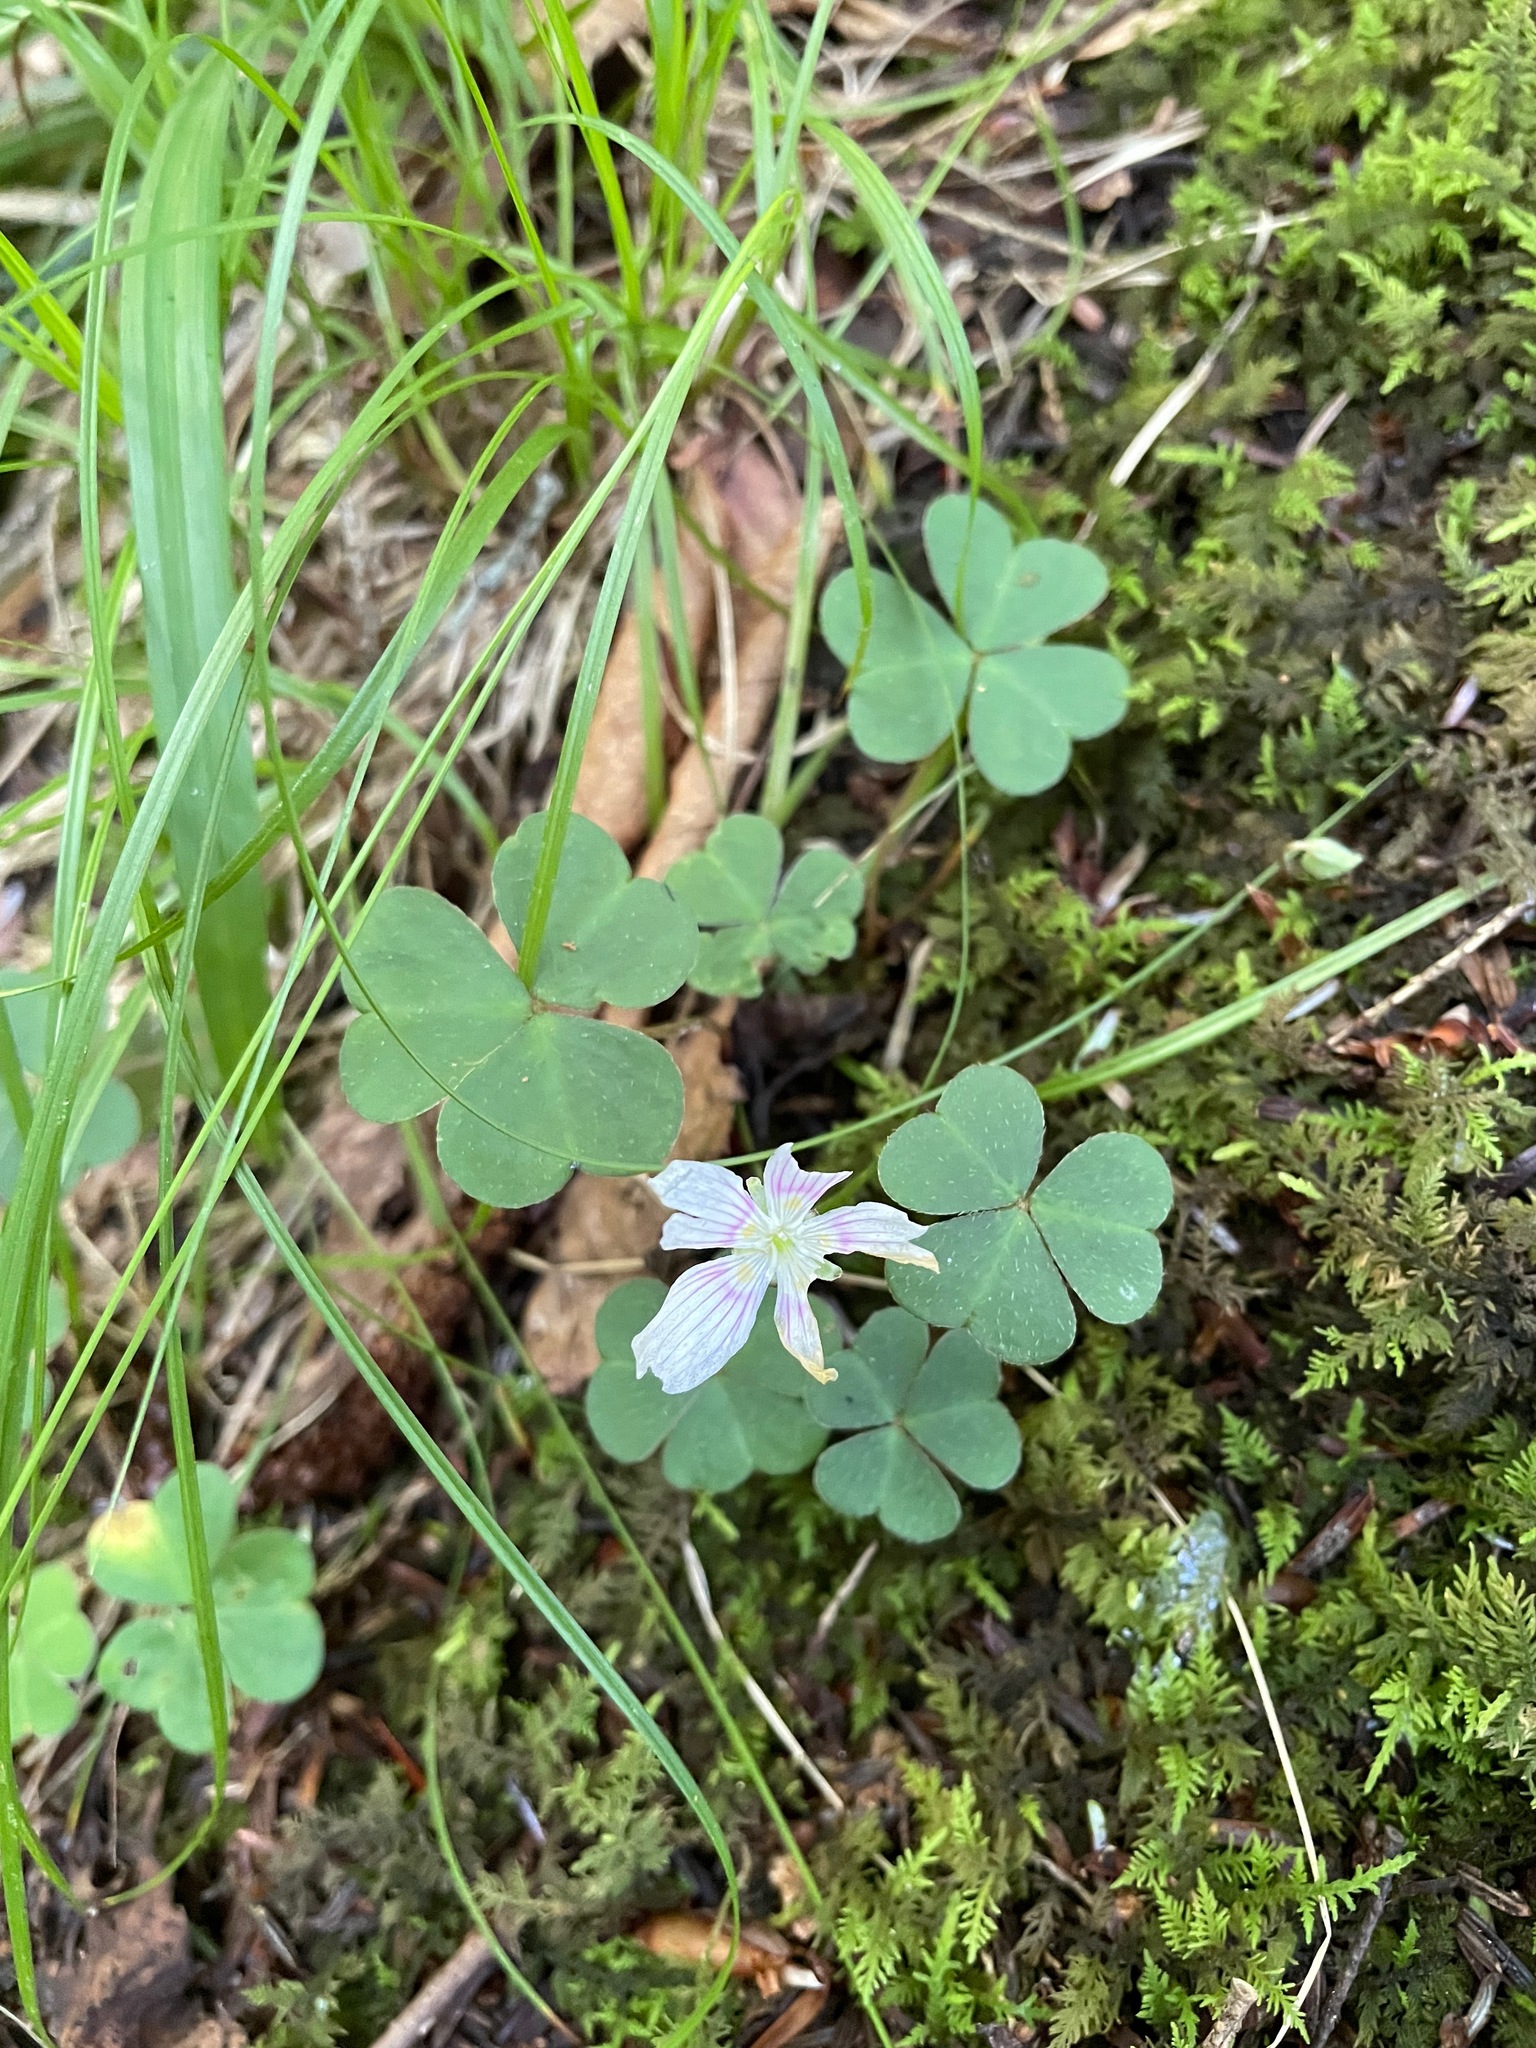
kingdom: Plantae
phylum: Tracheophyta
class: Magnoliopsida
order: Oxalidales
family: Oxalidaceae
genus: Oxalis
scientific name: Oxalis montana
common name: American wood-sorrel
